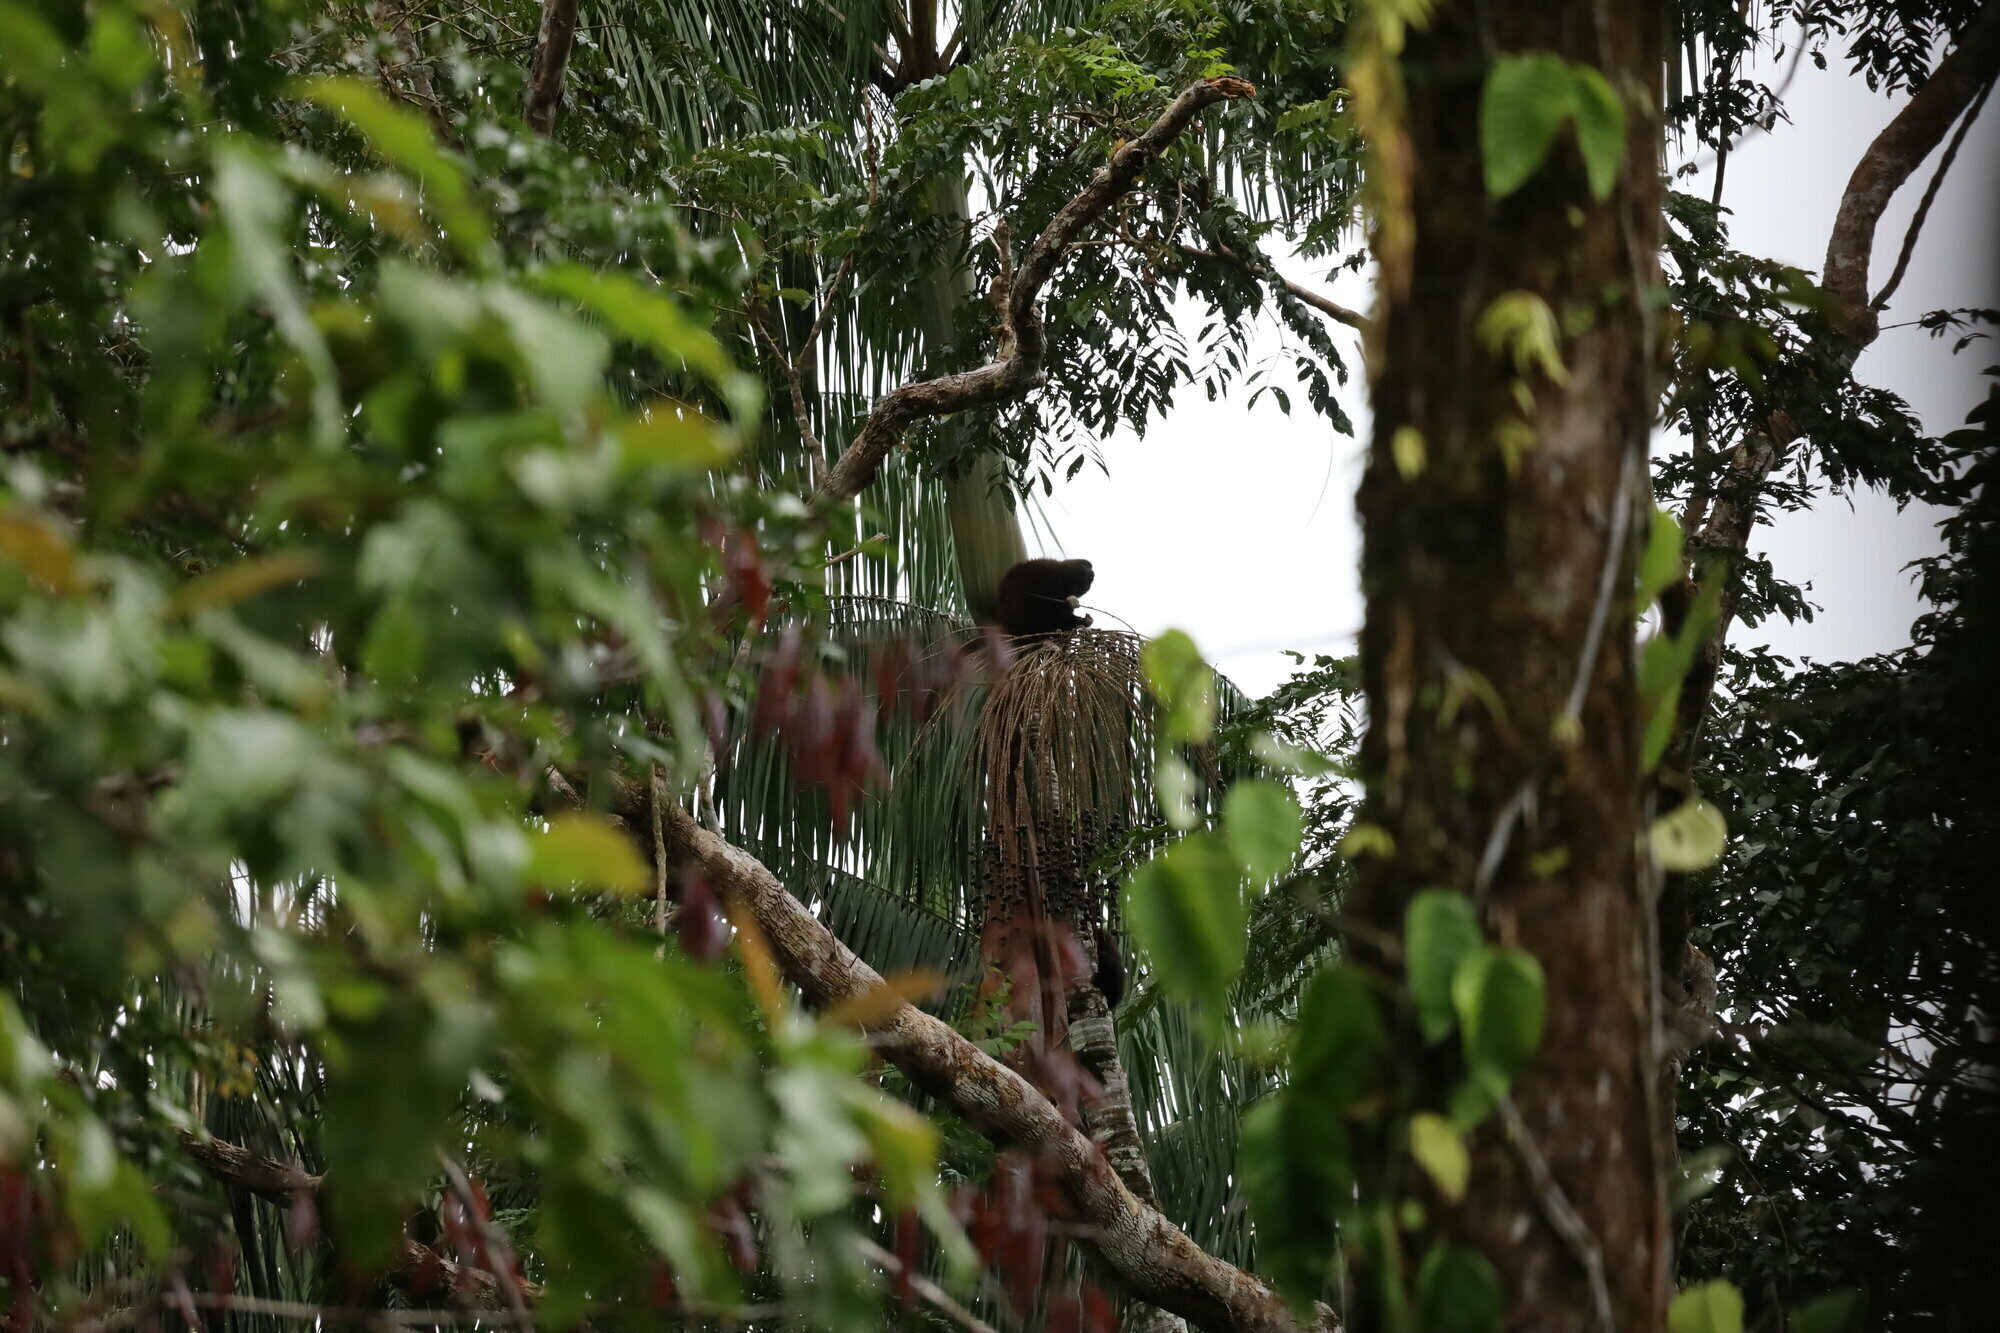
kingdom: Animalia
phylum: Chordata
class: Mammalia
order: Primates
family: Pitheciidae
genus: Cheracebus
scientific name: Cheracebus lucifer
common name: Yellow-handed titi
